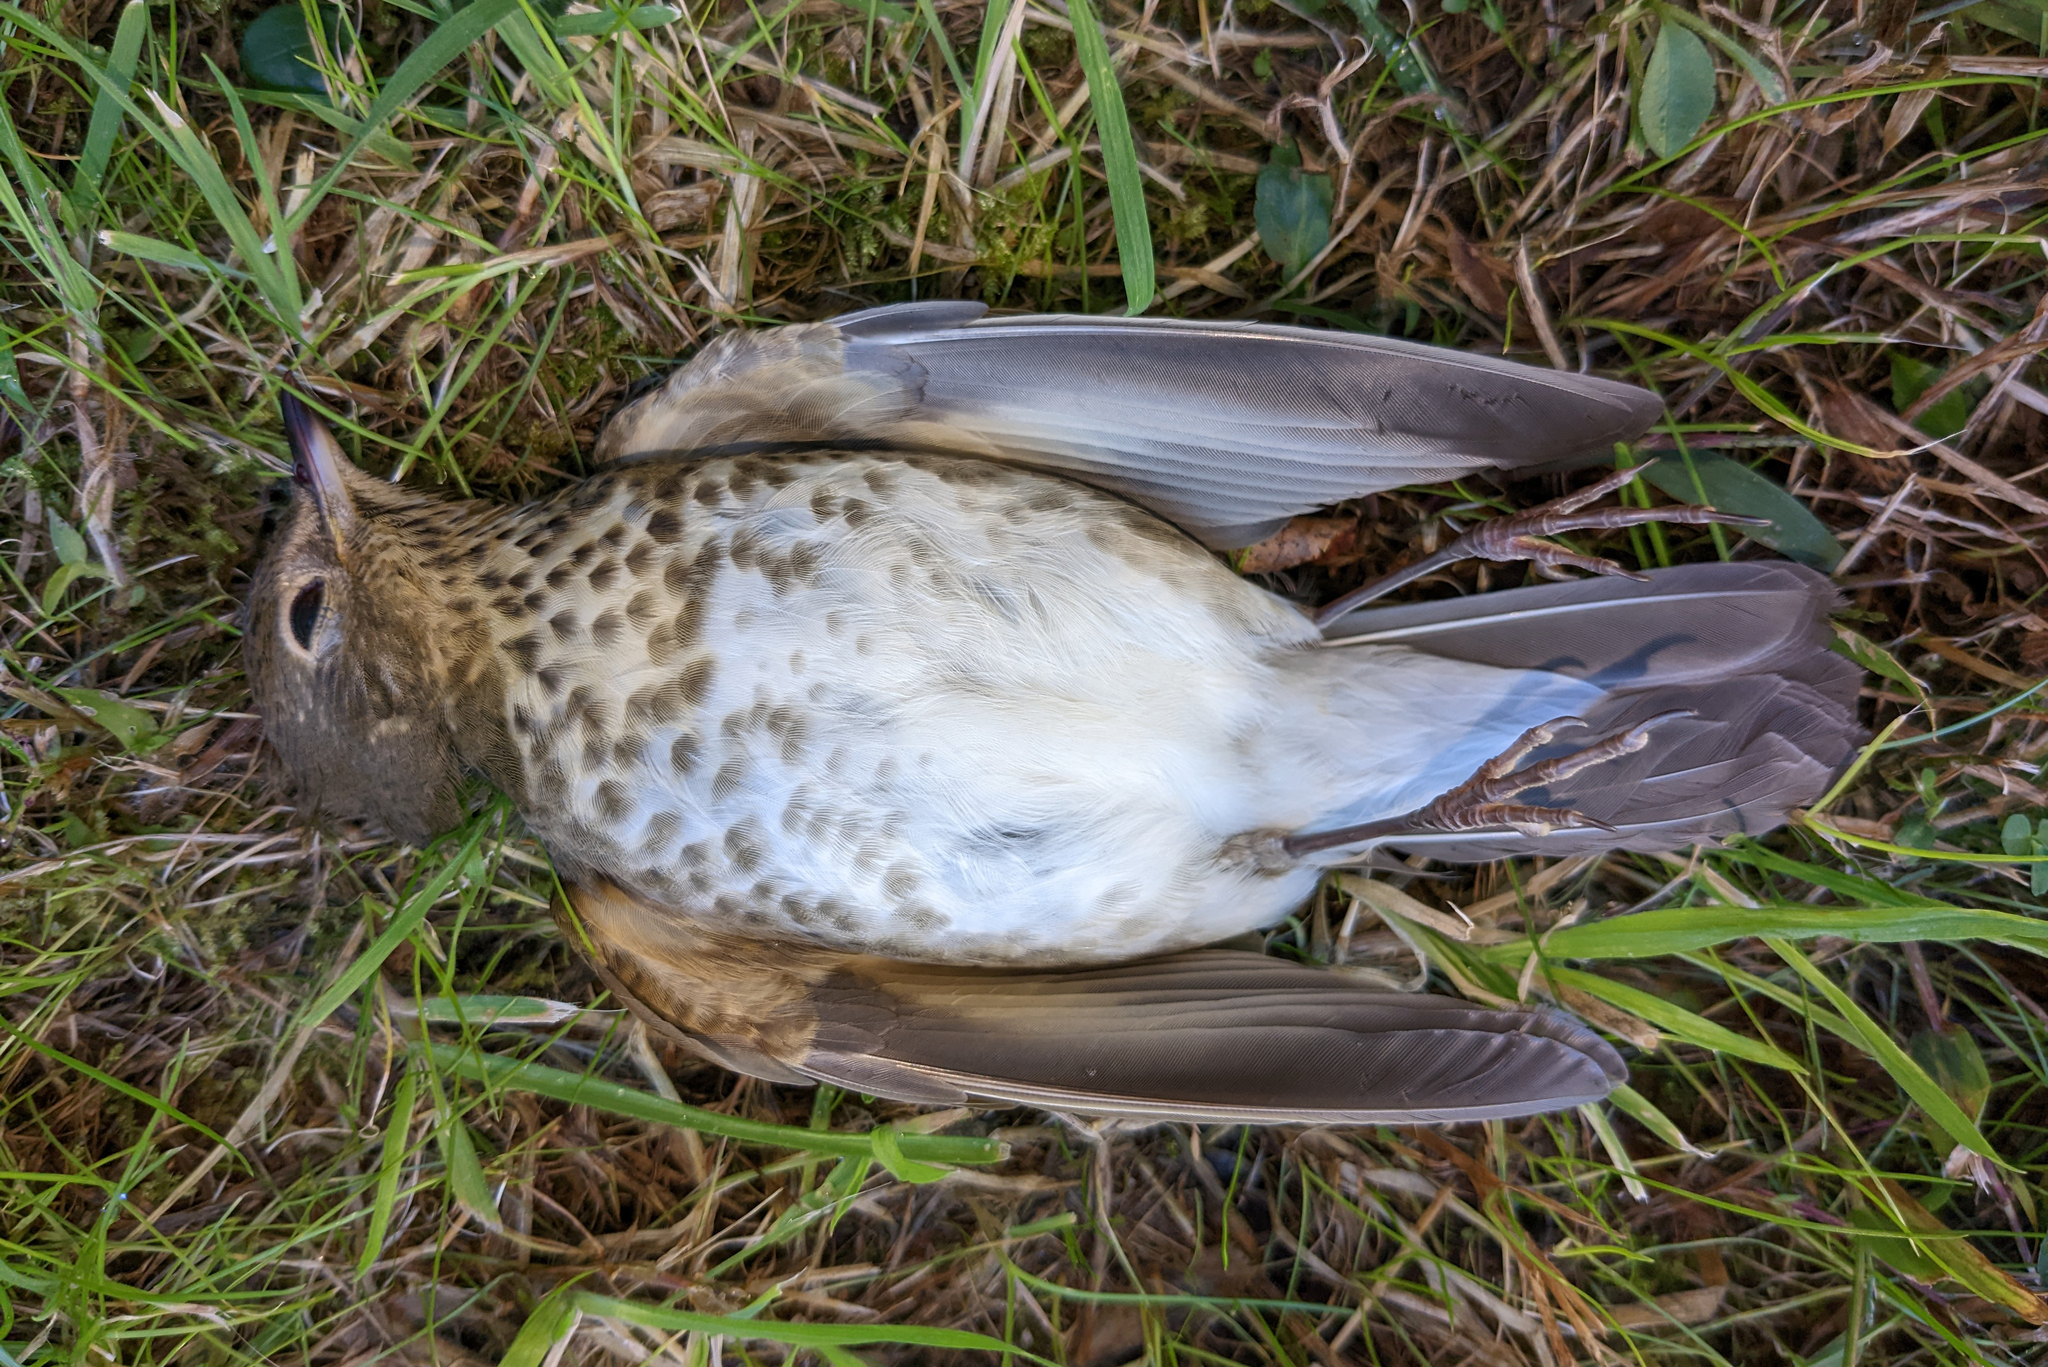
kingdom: Animalia
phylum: Chordata
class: Aves
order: Passeriformes
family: Turdidae
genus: Catharus
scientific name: Catharus ustulatus
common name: Swainson's thrush
